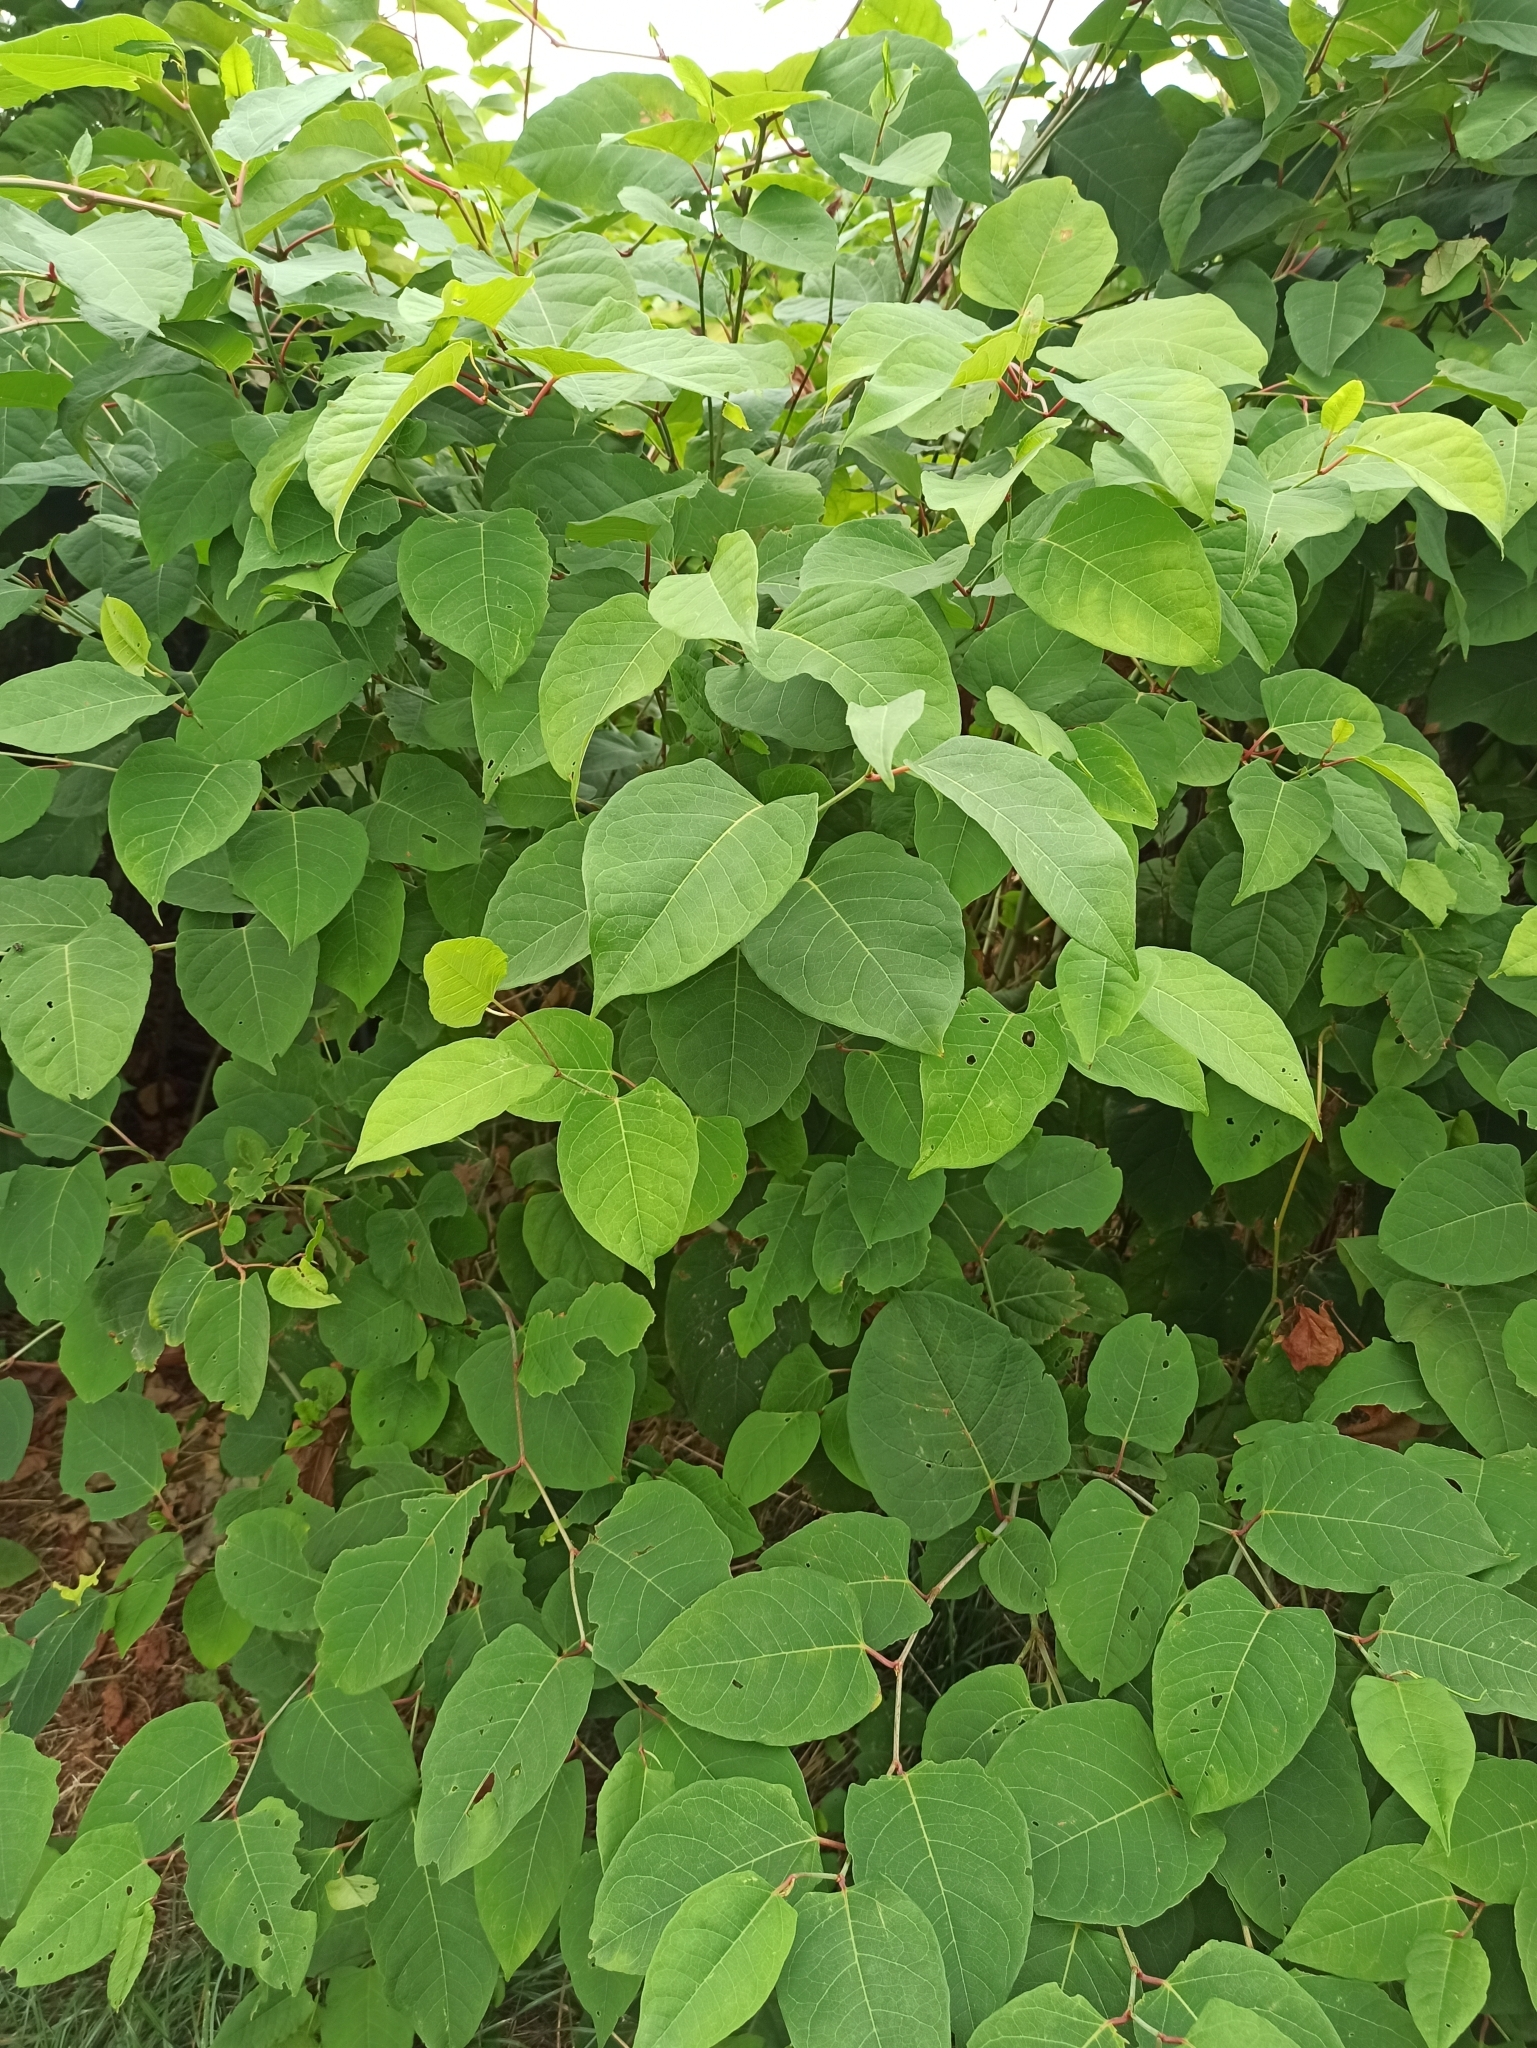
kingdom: Plantae
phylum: Tracheophyta
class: Magnoliopsida
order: Caryophyllales
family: Polygonaceae
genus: Reynoutria
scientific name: Reynoutria bohemica
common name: Bohemian knotweed
